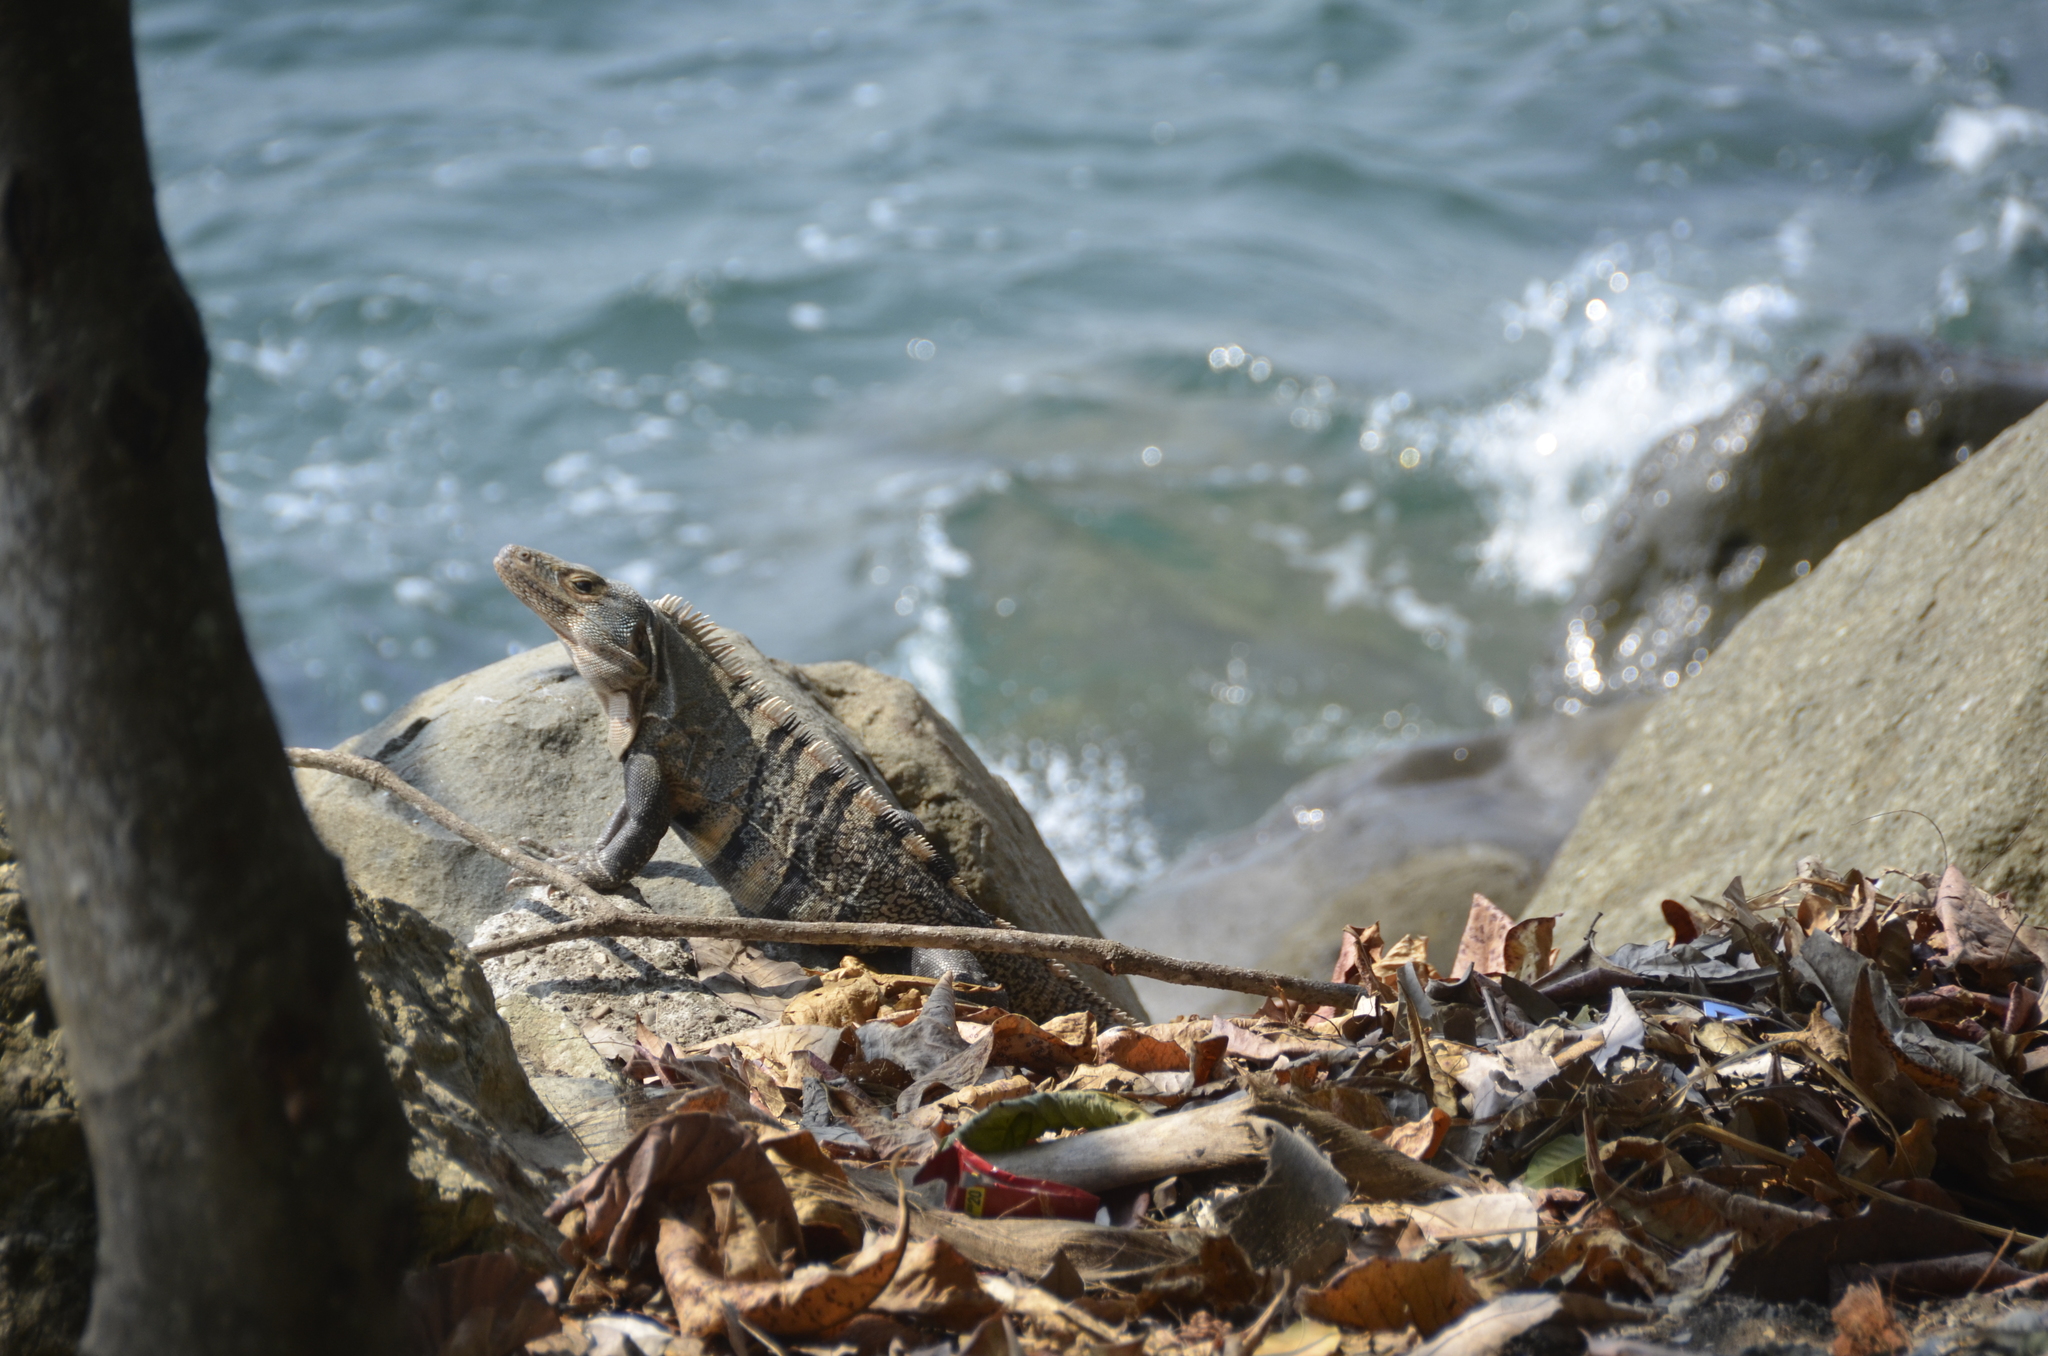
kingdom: Animalia
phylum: Chordata
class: Squamata
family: Iguanidae
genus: Ctenosaura
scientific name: Ctenosaura similis
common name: Black spiny-tailed iguana
